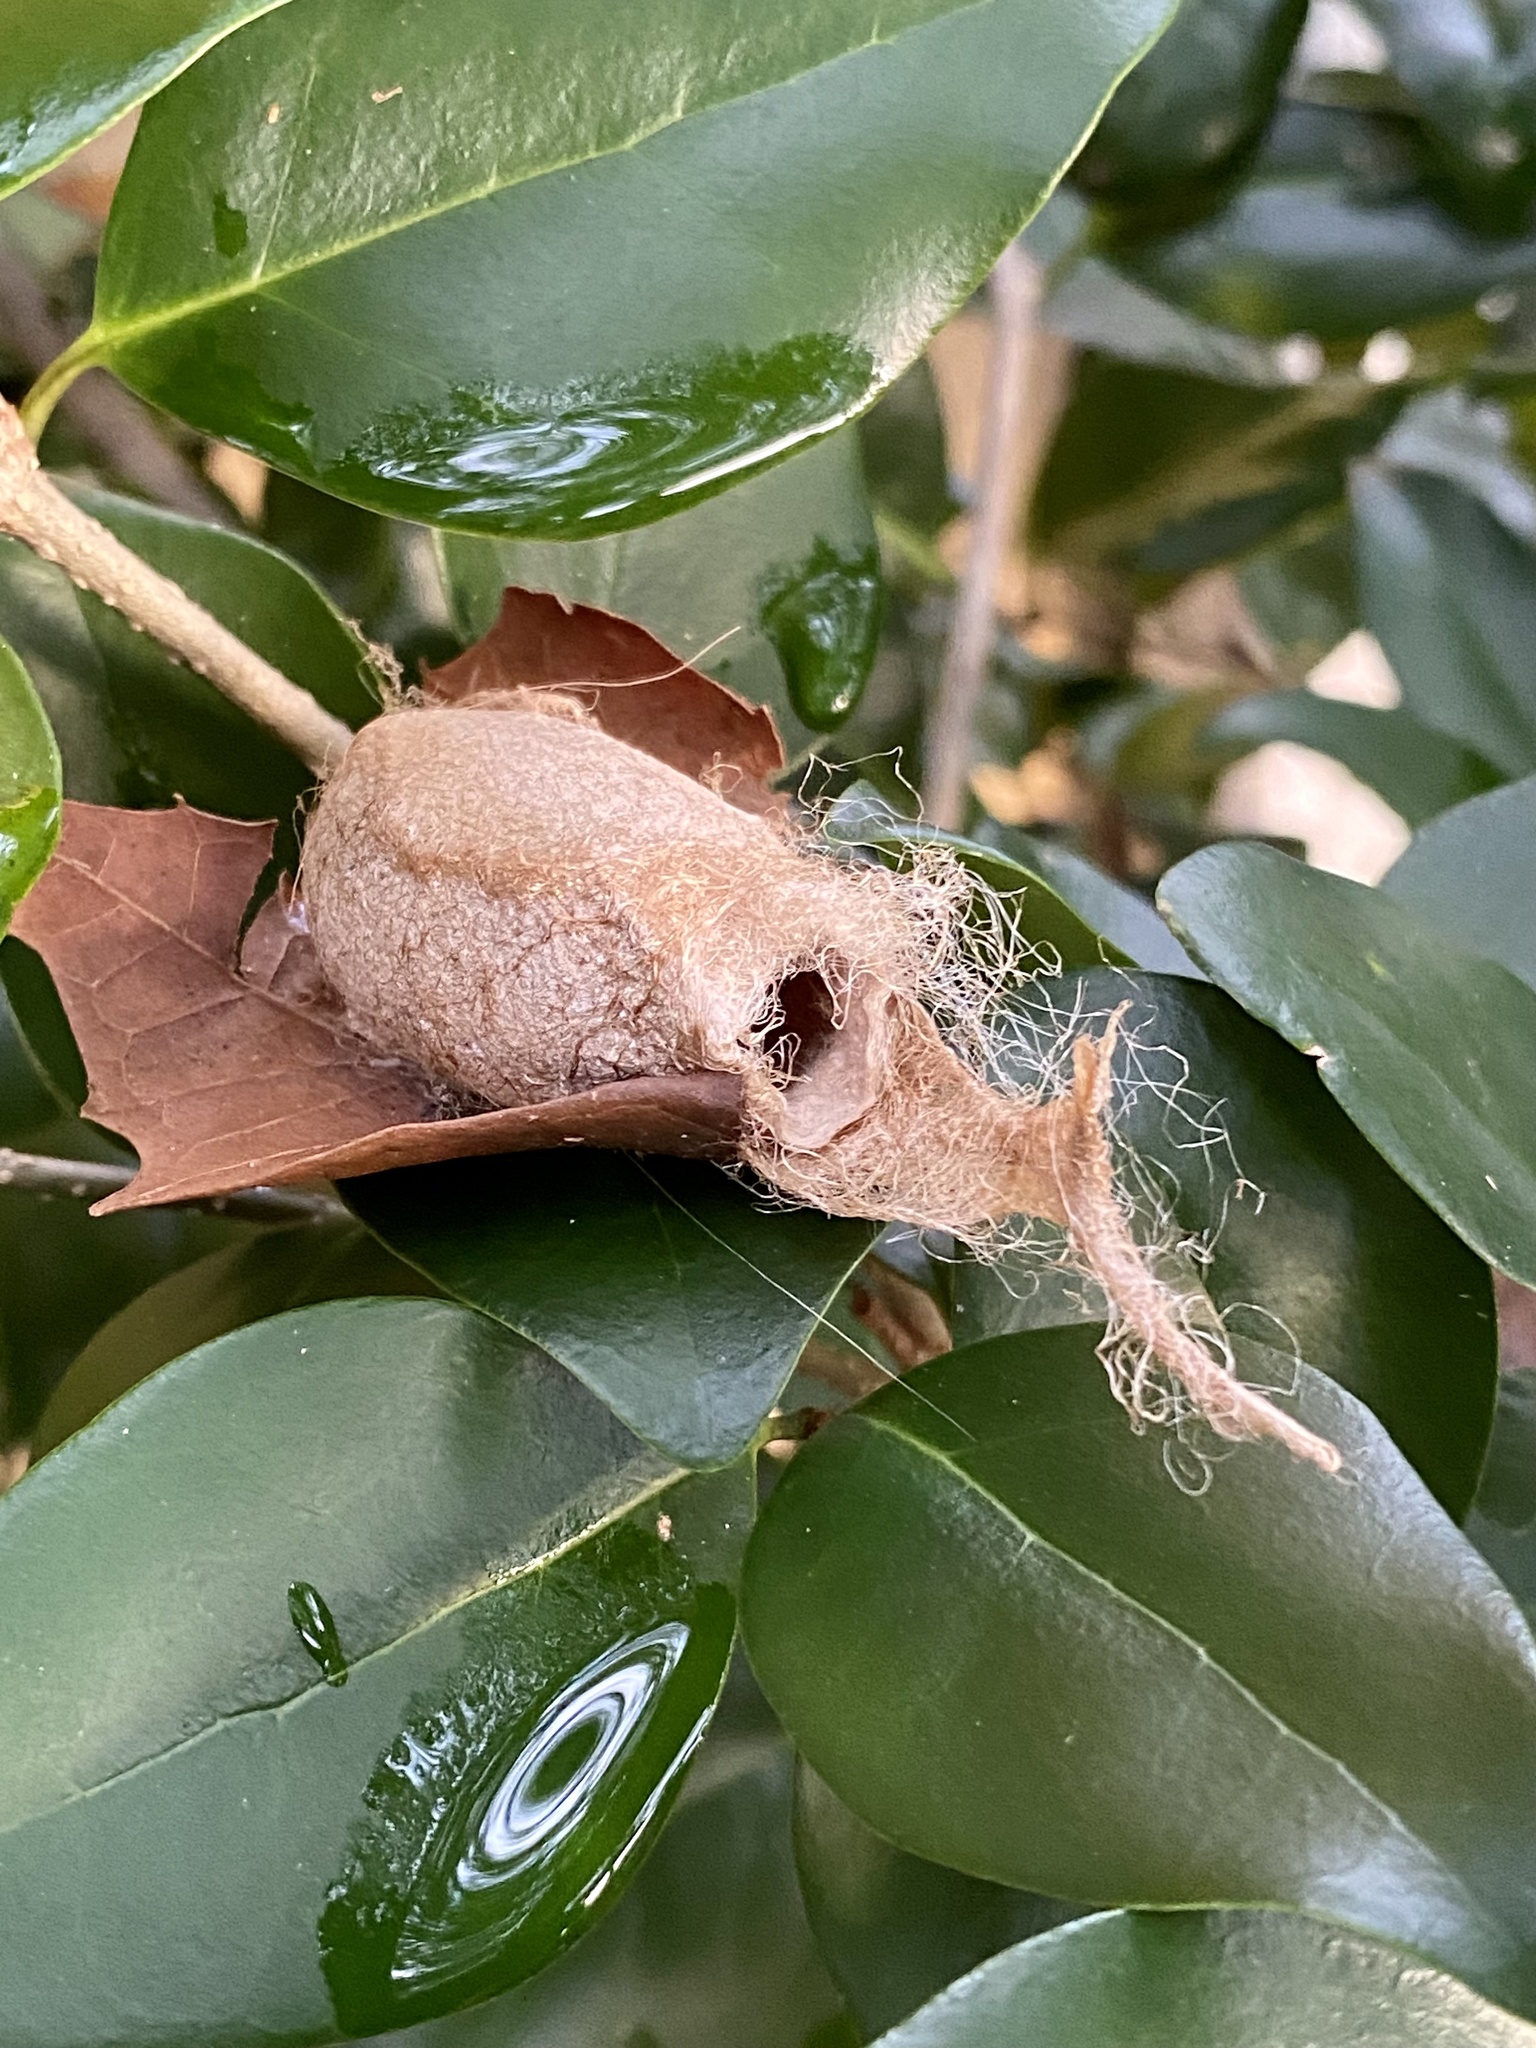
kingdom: Animalia
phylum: Arthropoda
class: Insecta
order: Lepidoptera
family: Saturniidae
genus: Antheraea
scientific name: Antheraea polyphemus
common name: Polyphemus moth
